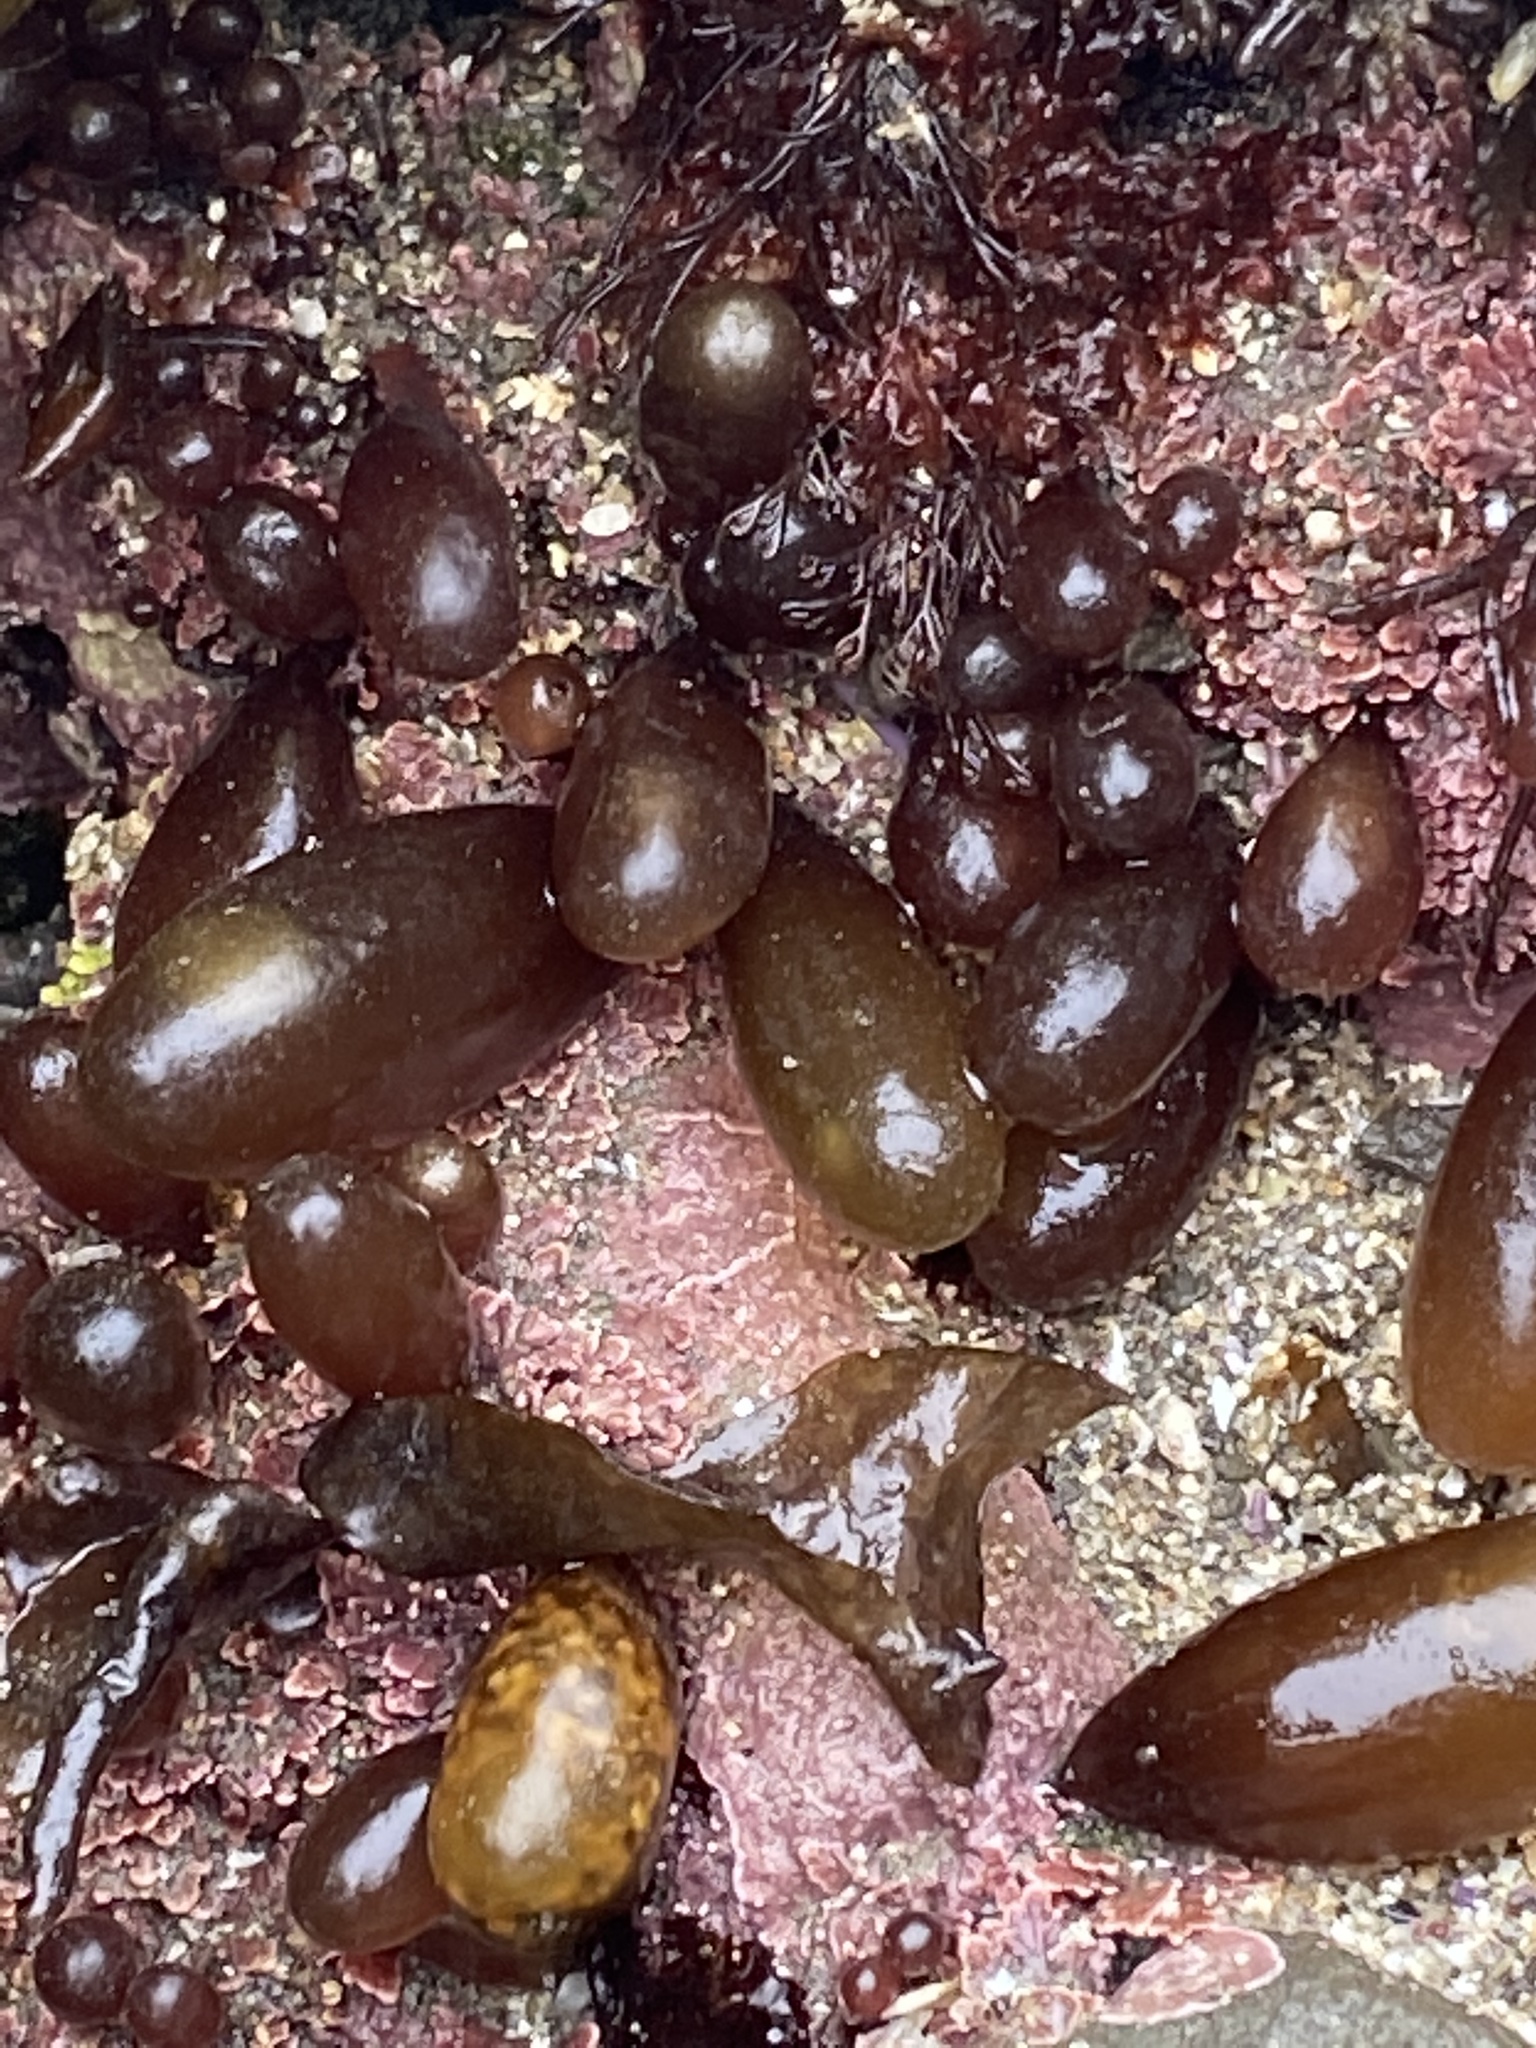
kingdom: Plantae
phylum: Rhodophyta
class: Florideophyceae
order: Palmariales
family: Palmariaceae
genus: Halosaccion
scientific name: Halosaccion glandiforme
